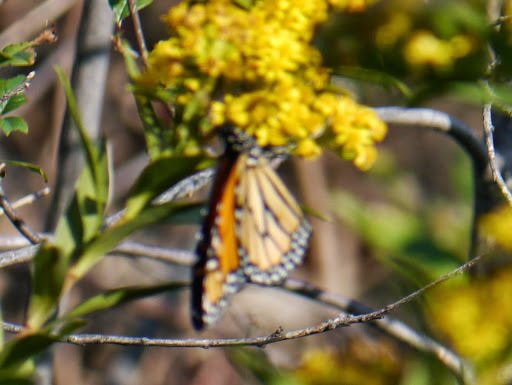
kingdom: Animalia
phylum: Arthropoda
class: Insecta
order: Lepidoptera
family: Nymphalidae
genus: Danaus
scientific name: Danaus plexippus
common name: Monarch
